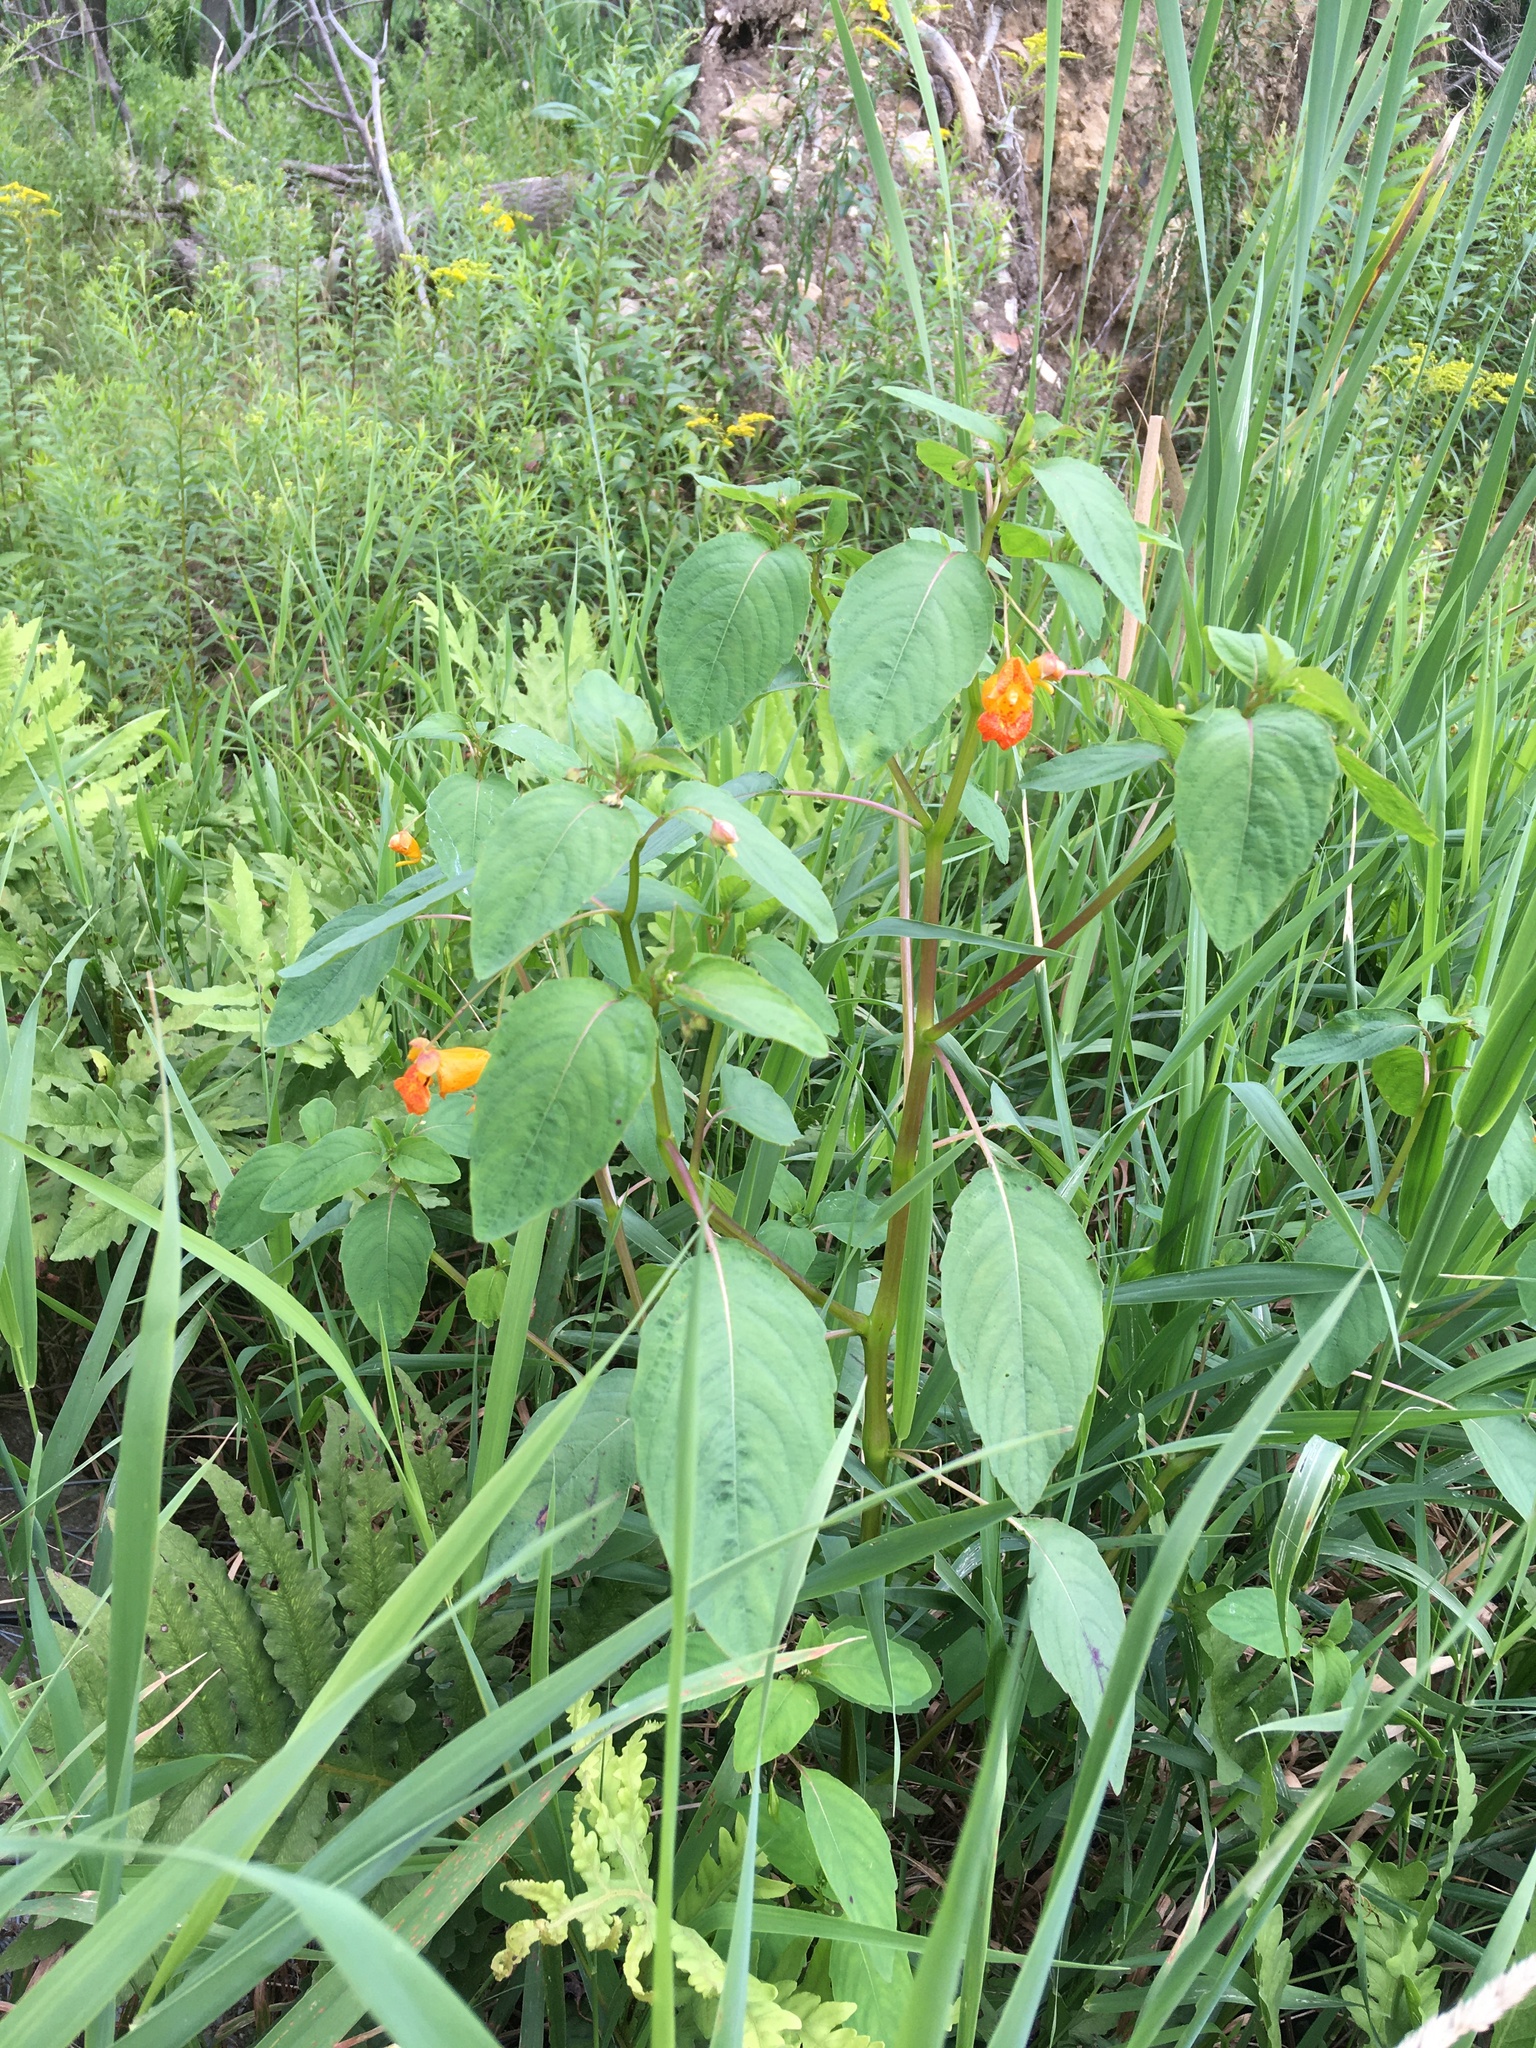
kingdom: Plantae
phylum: Tracheophyta
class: Magnoliopsida
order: Ericales
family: Balsaminaceae
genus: Impatiens
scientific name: Impatiens capensis
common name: Orange balsam
